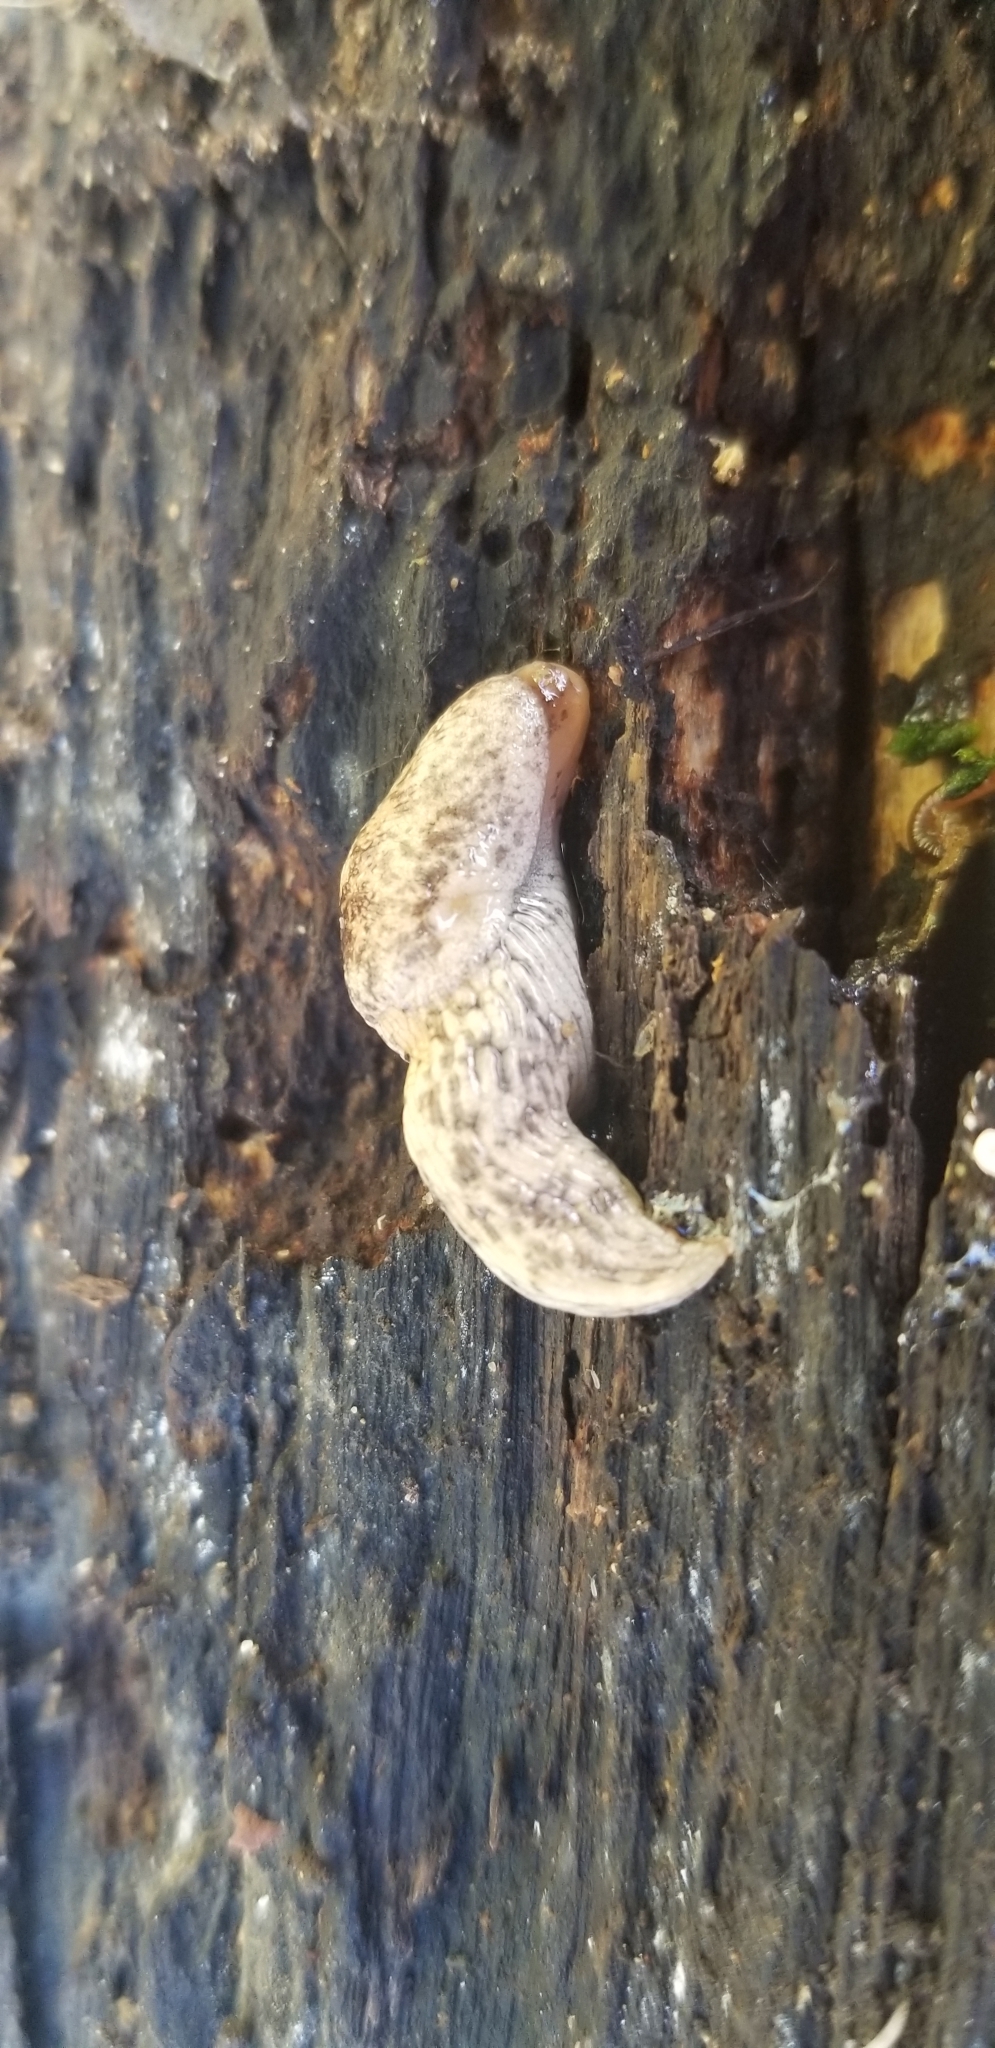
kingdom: Animalia
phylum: Mollusca
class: Gastropoda
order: Stylommatophora
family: Agriolimacidae
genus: Deroceras
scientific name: Deroceras reticulatum
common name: Gray field slug
